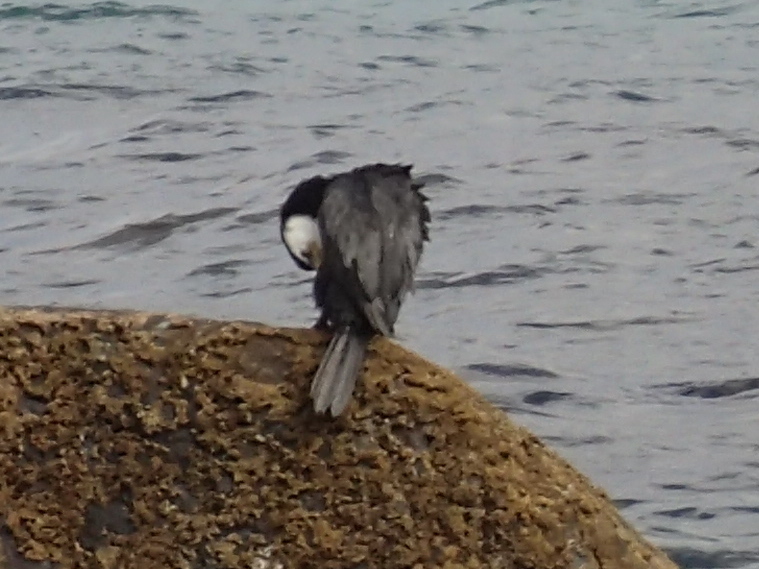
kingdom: Animalia
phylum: Chordata
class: Aves
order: Suliformes
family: Phalacrocoracidae
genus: Microcarbo
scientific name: Microcarbo melanoleucos
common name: Little pied cormorant
